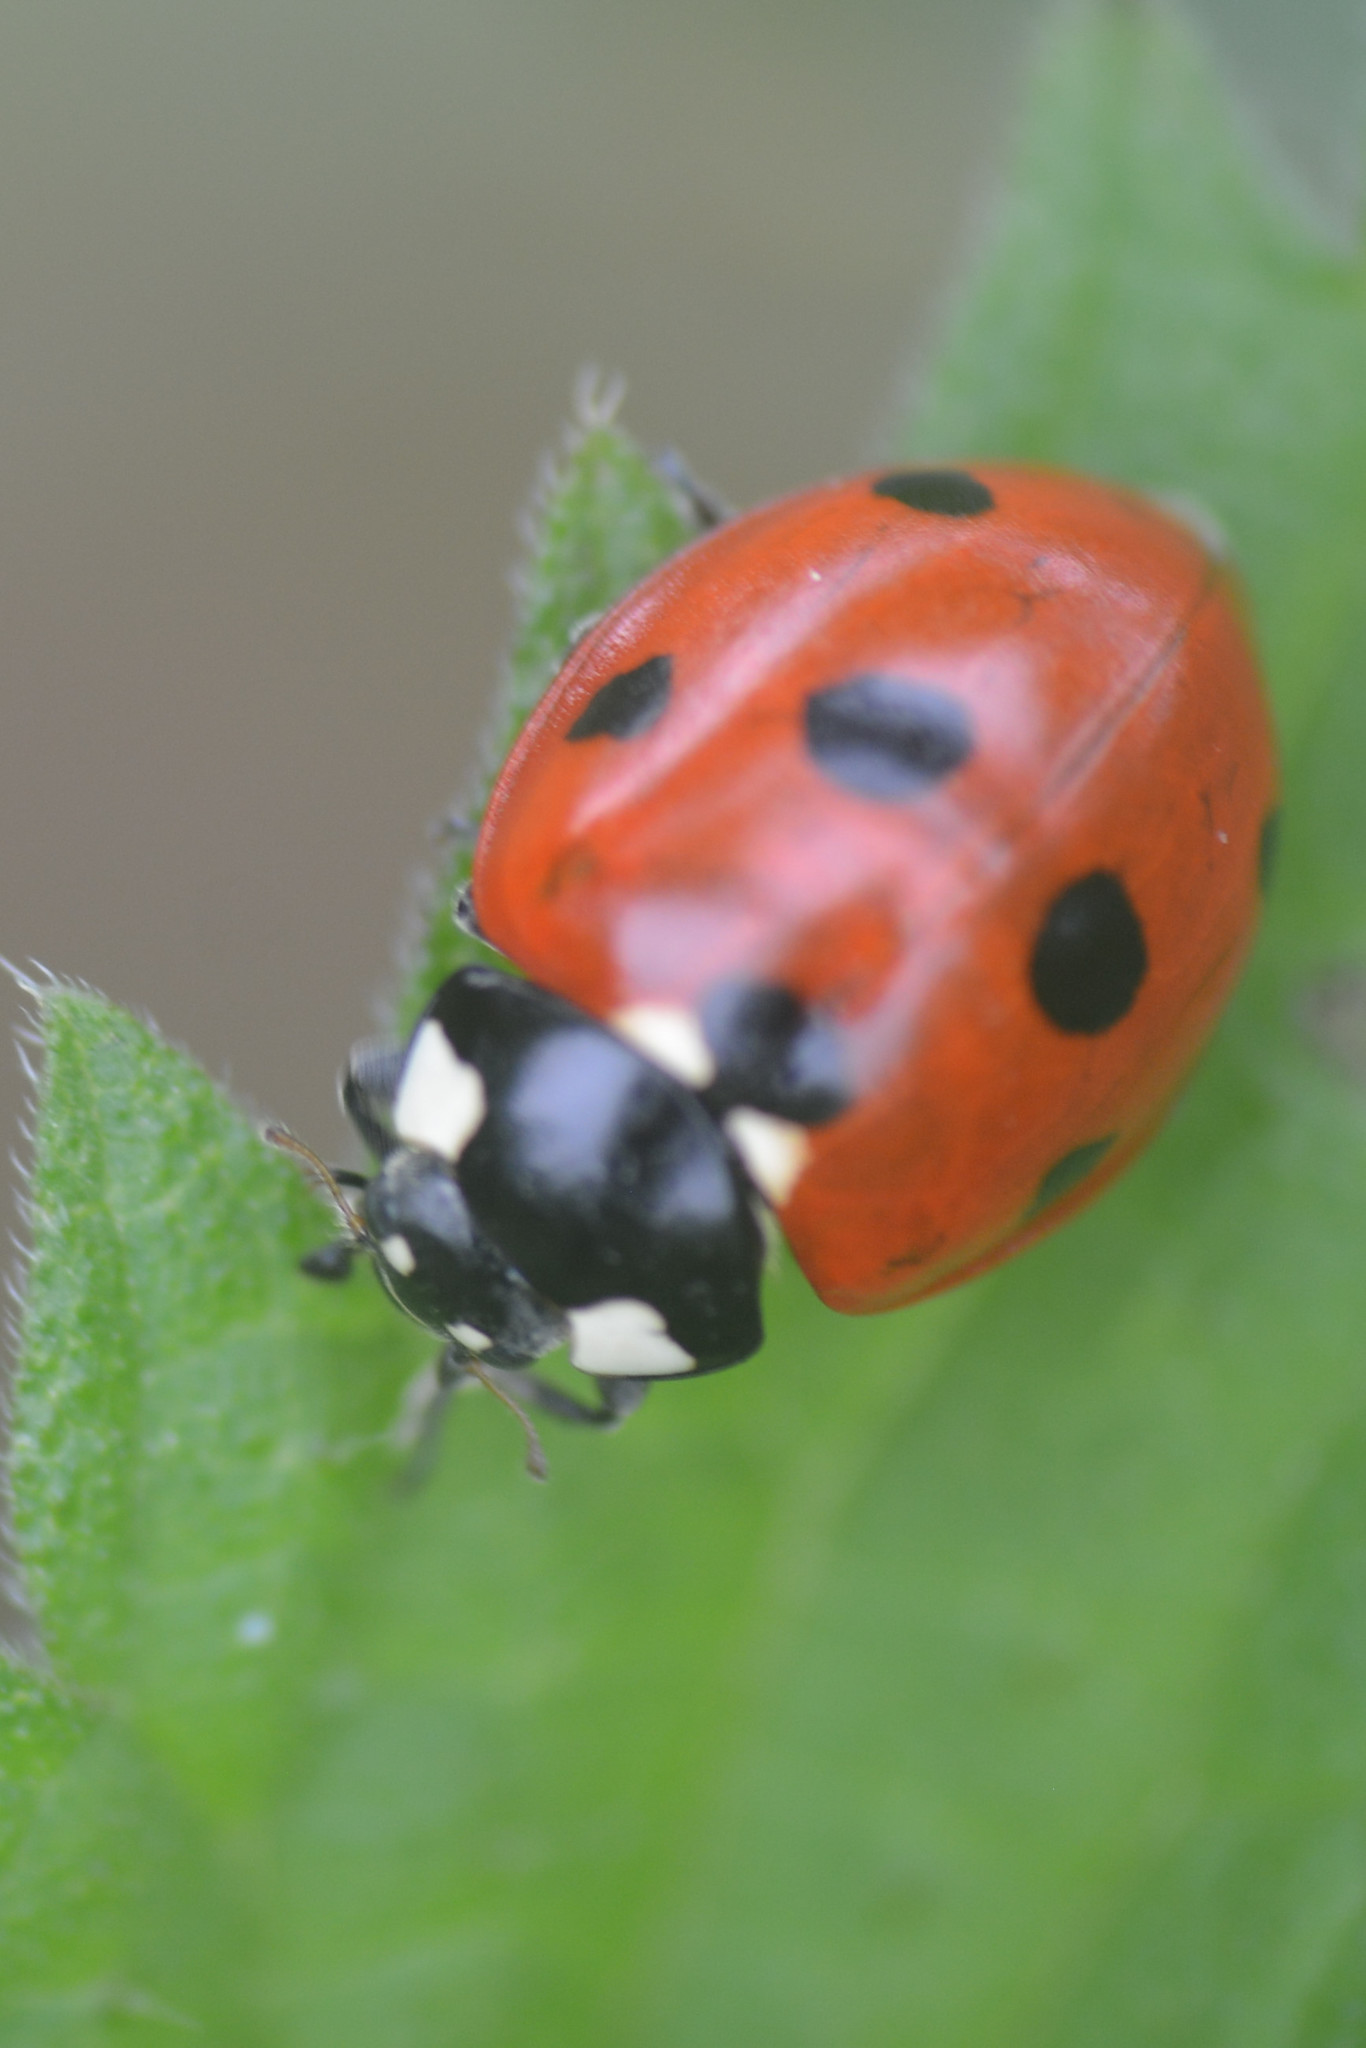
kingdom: Animalia
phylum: Arthropoda
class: Insecta
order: Coleoptera
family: Coccinellidae
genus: Coccinella
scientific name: Coccinella septempunctata
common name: Sevenspotted lady beetle
